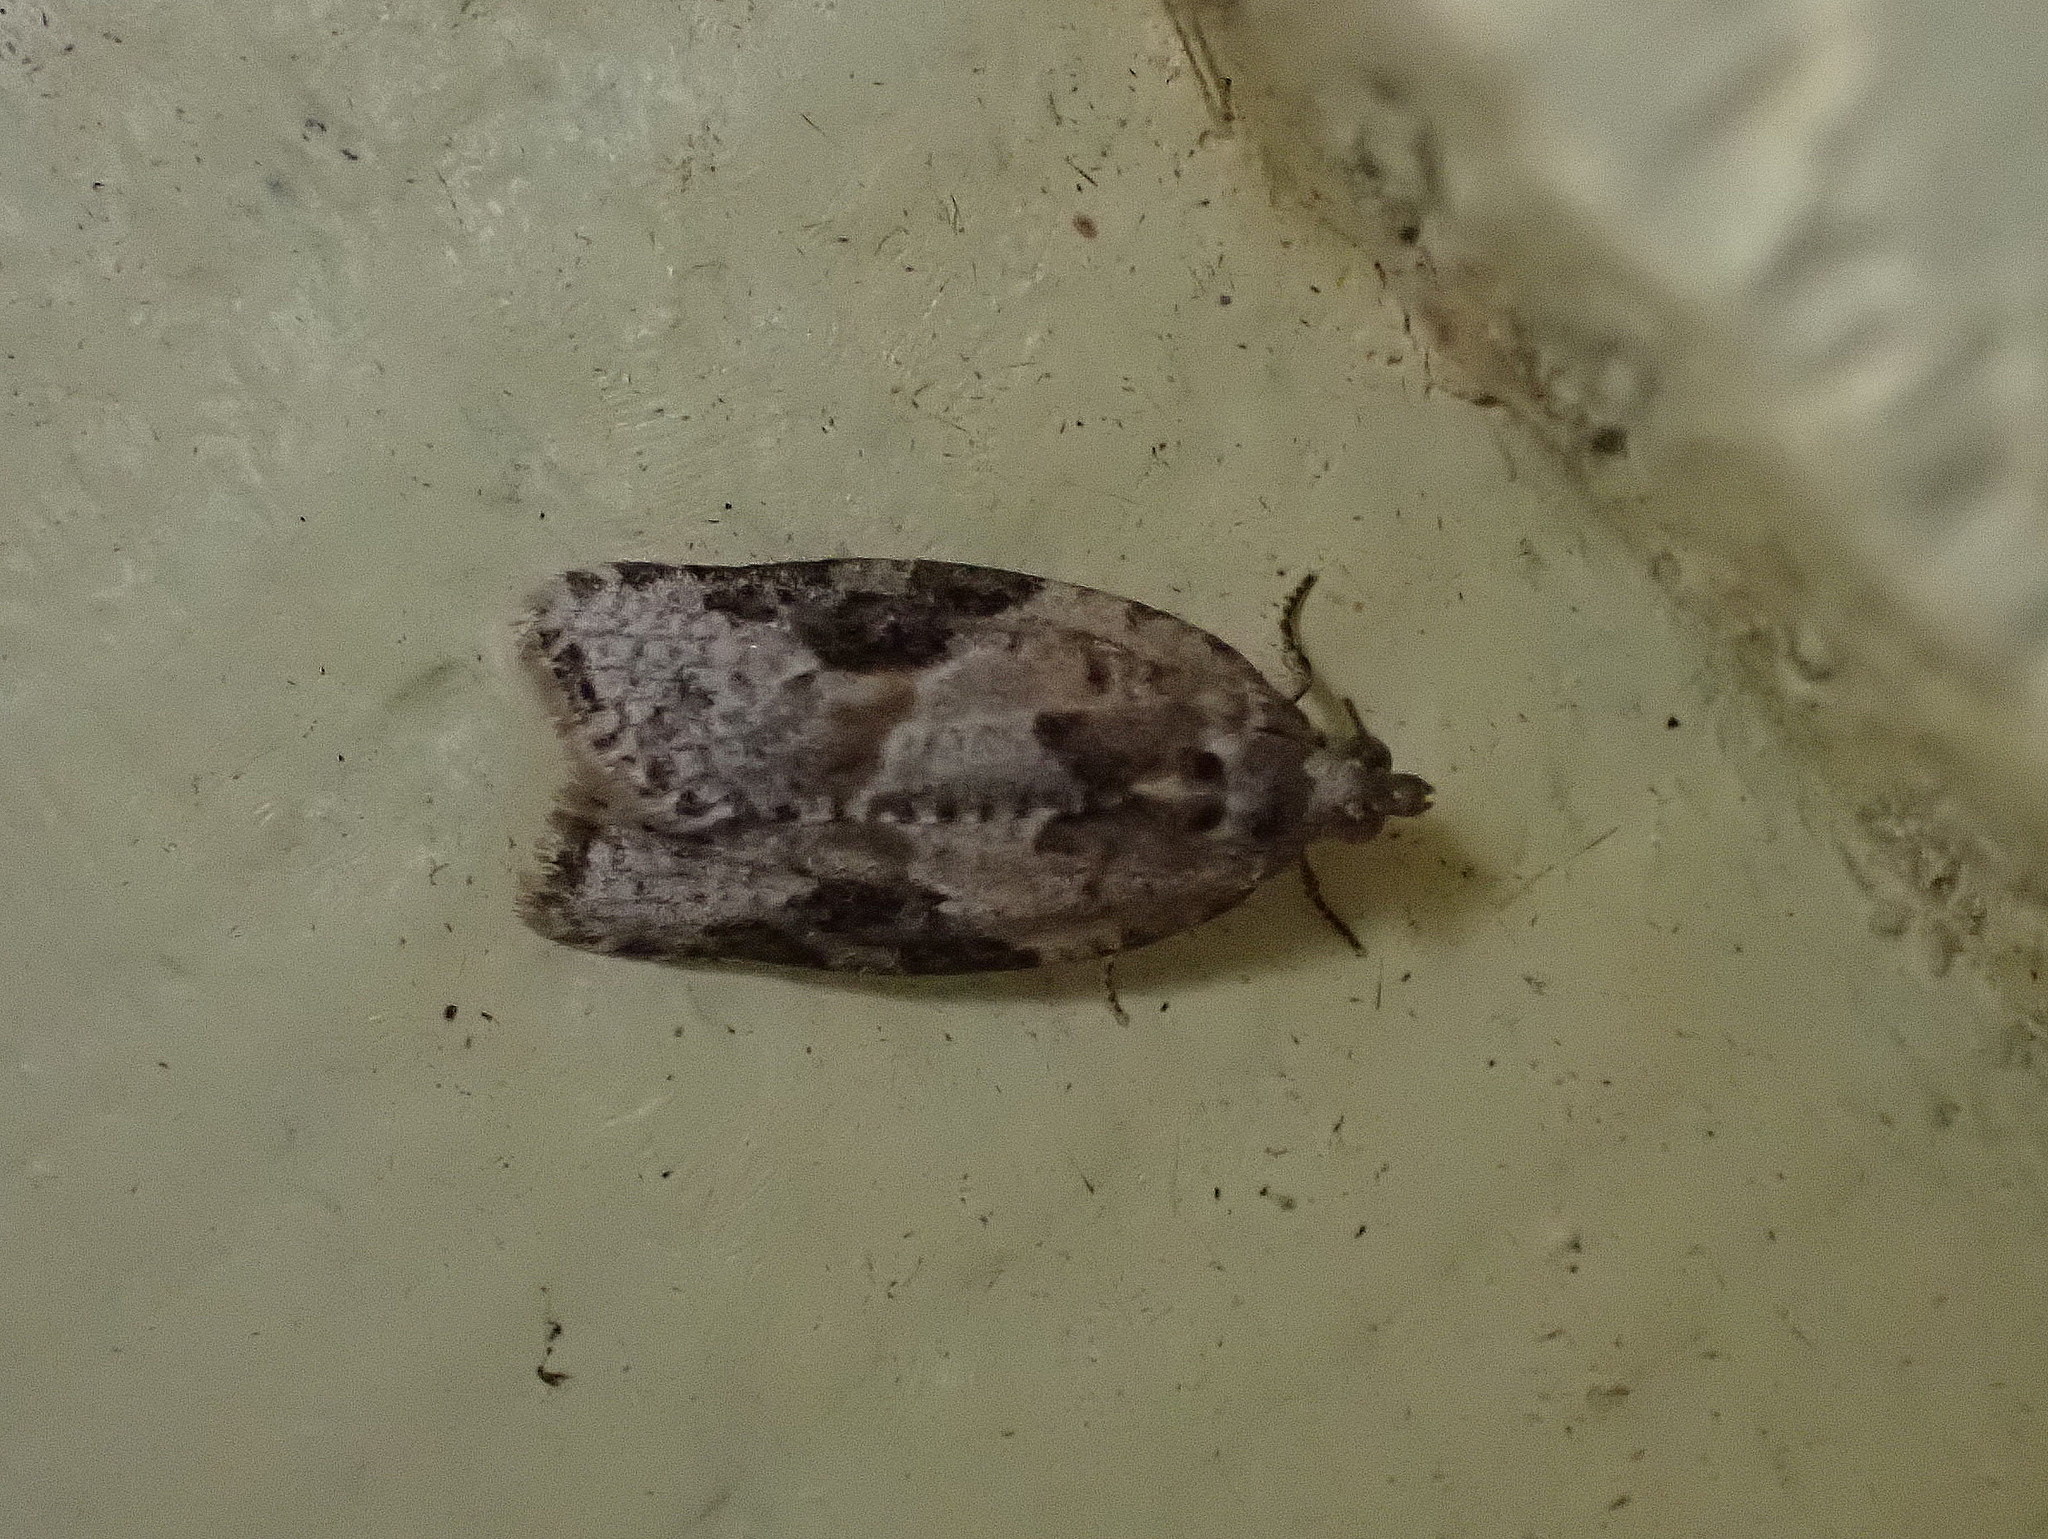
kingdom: Animalia
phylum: Arthropoda
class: Insecta
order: Lepidoptera
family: Tortricidae
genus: Argyrotaenia
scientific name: Argyrotaenia mariana
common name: Gray-banded leafroller moth
